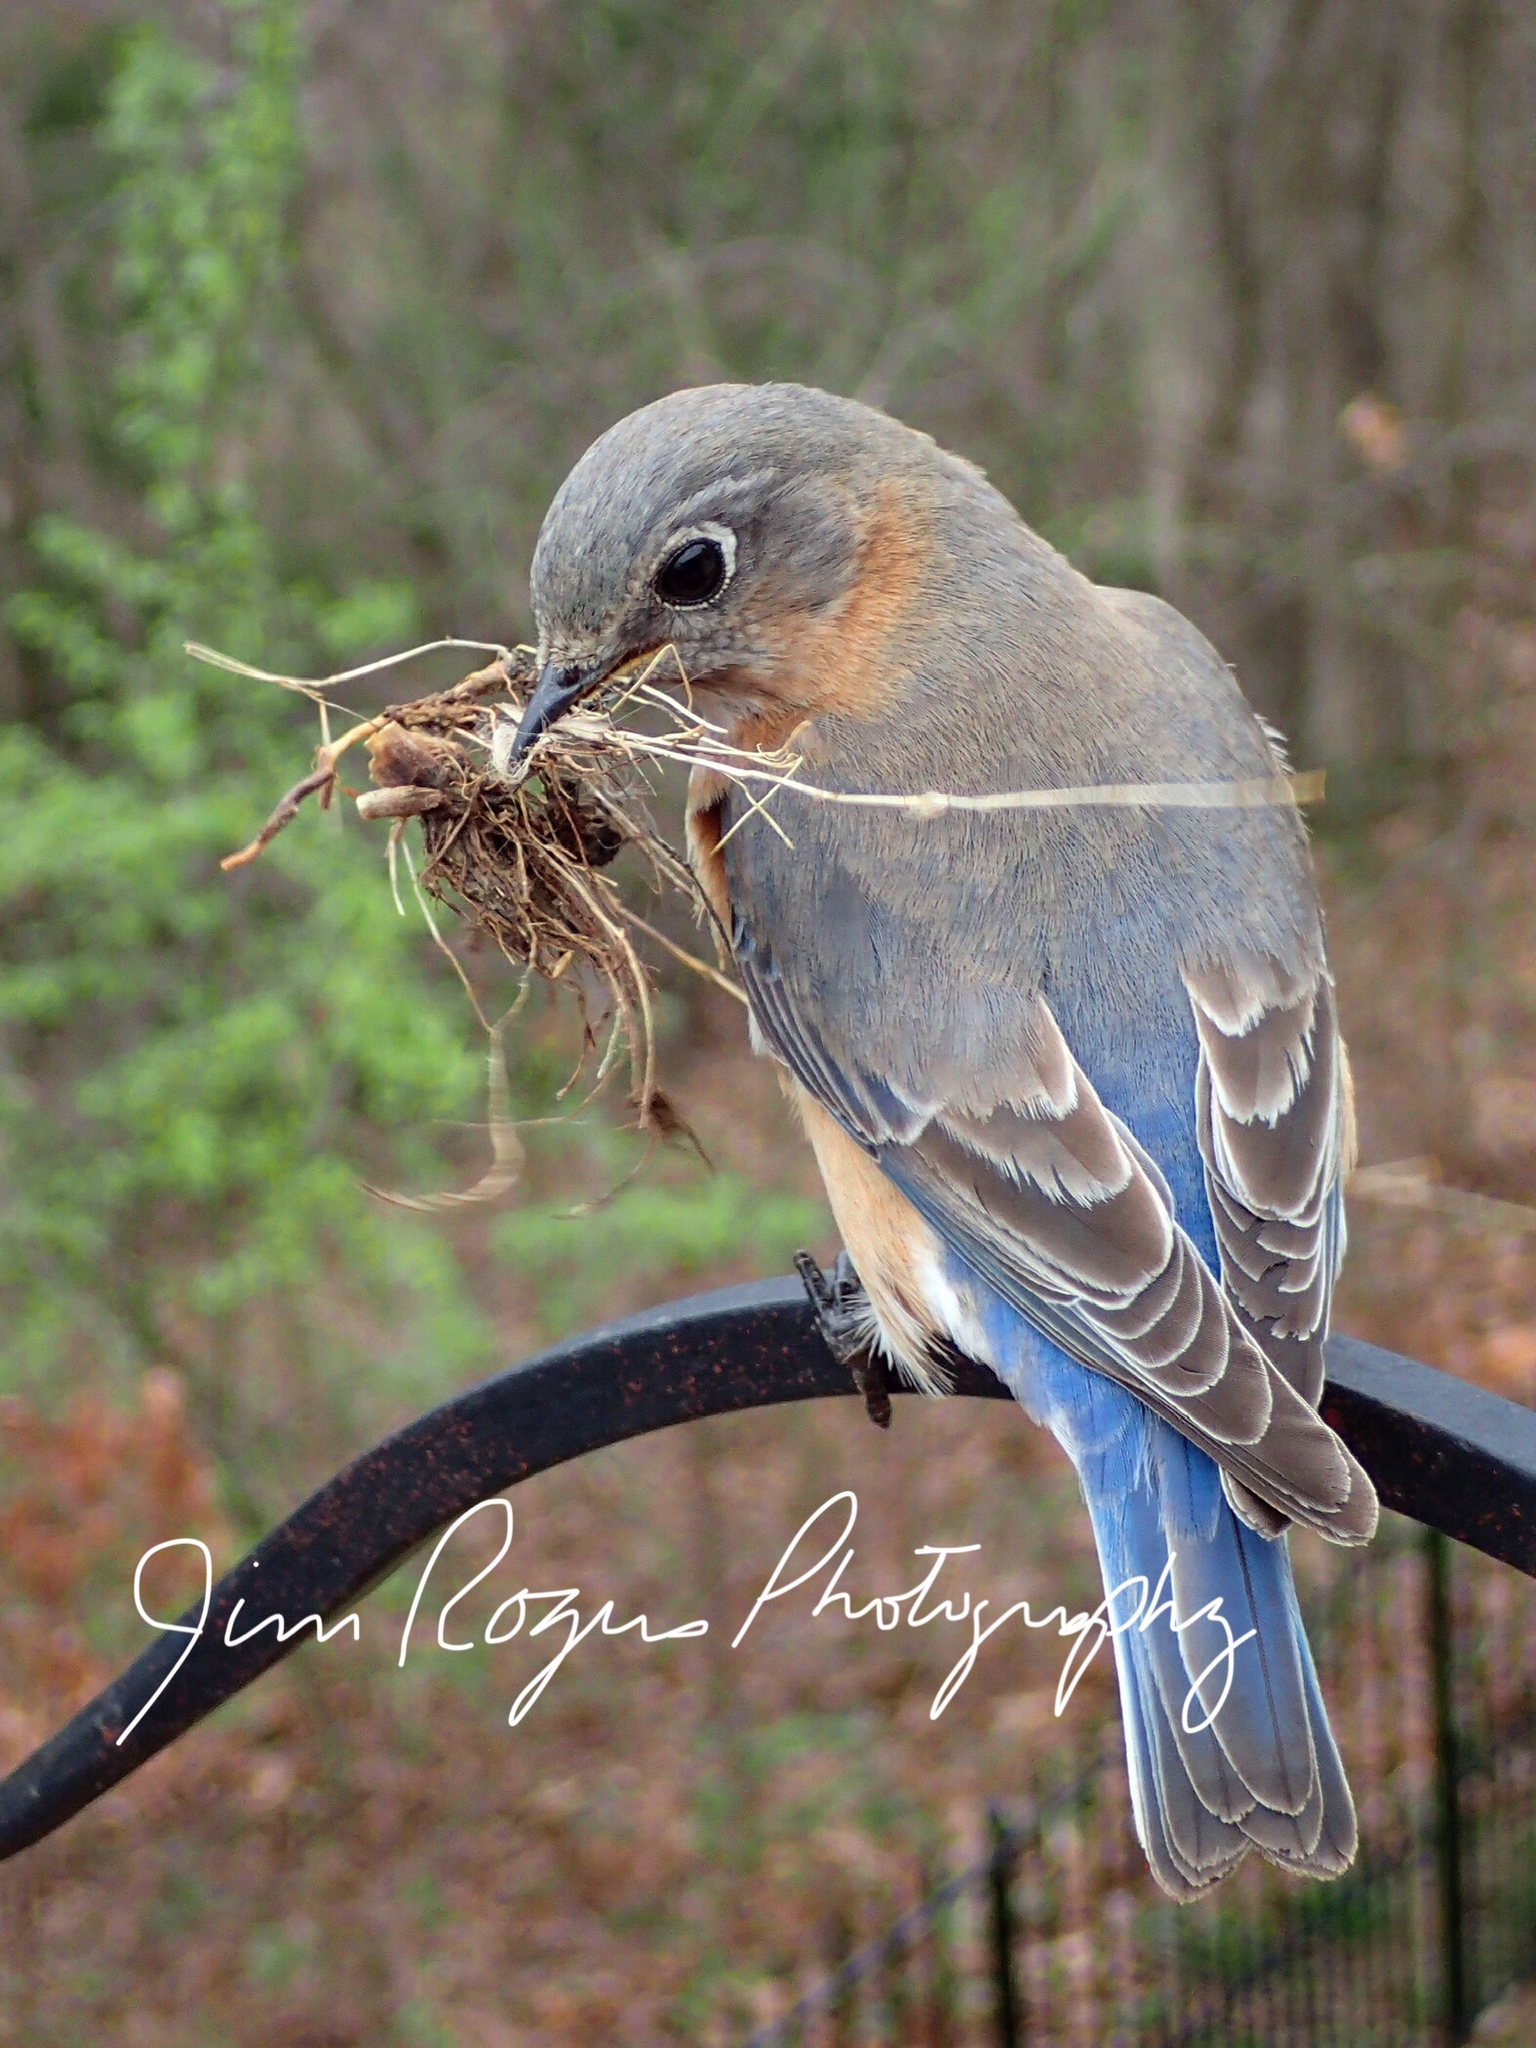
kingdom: Animalia
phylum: Chordata
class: Aves
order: Passeriformes
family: Turdidae
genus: Sialia
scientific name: Sialia sialis
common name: Eastern bluebird
